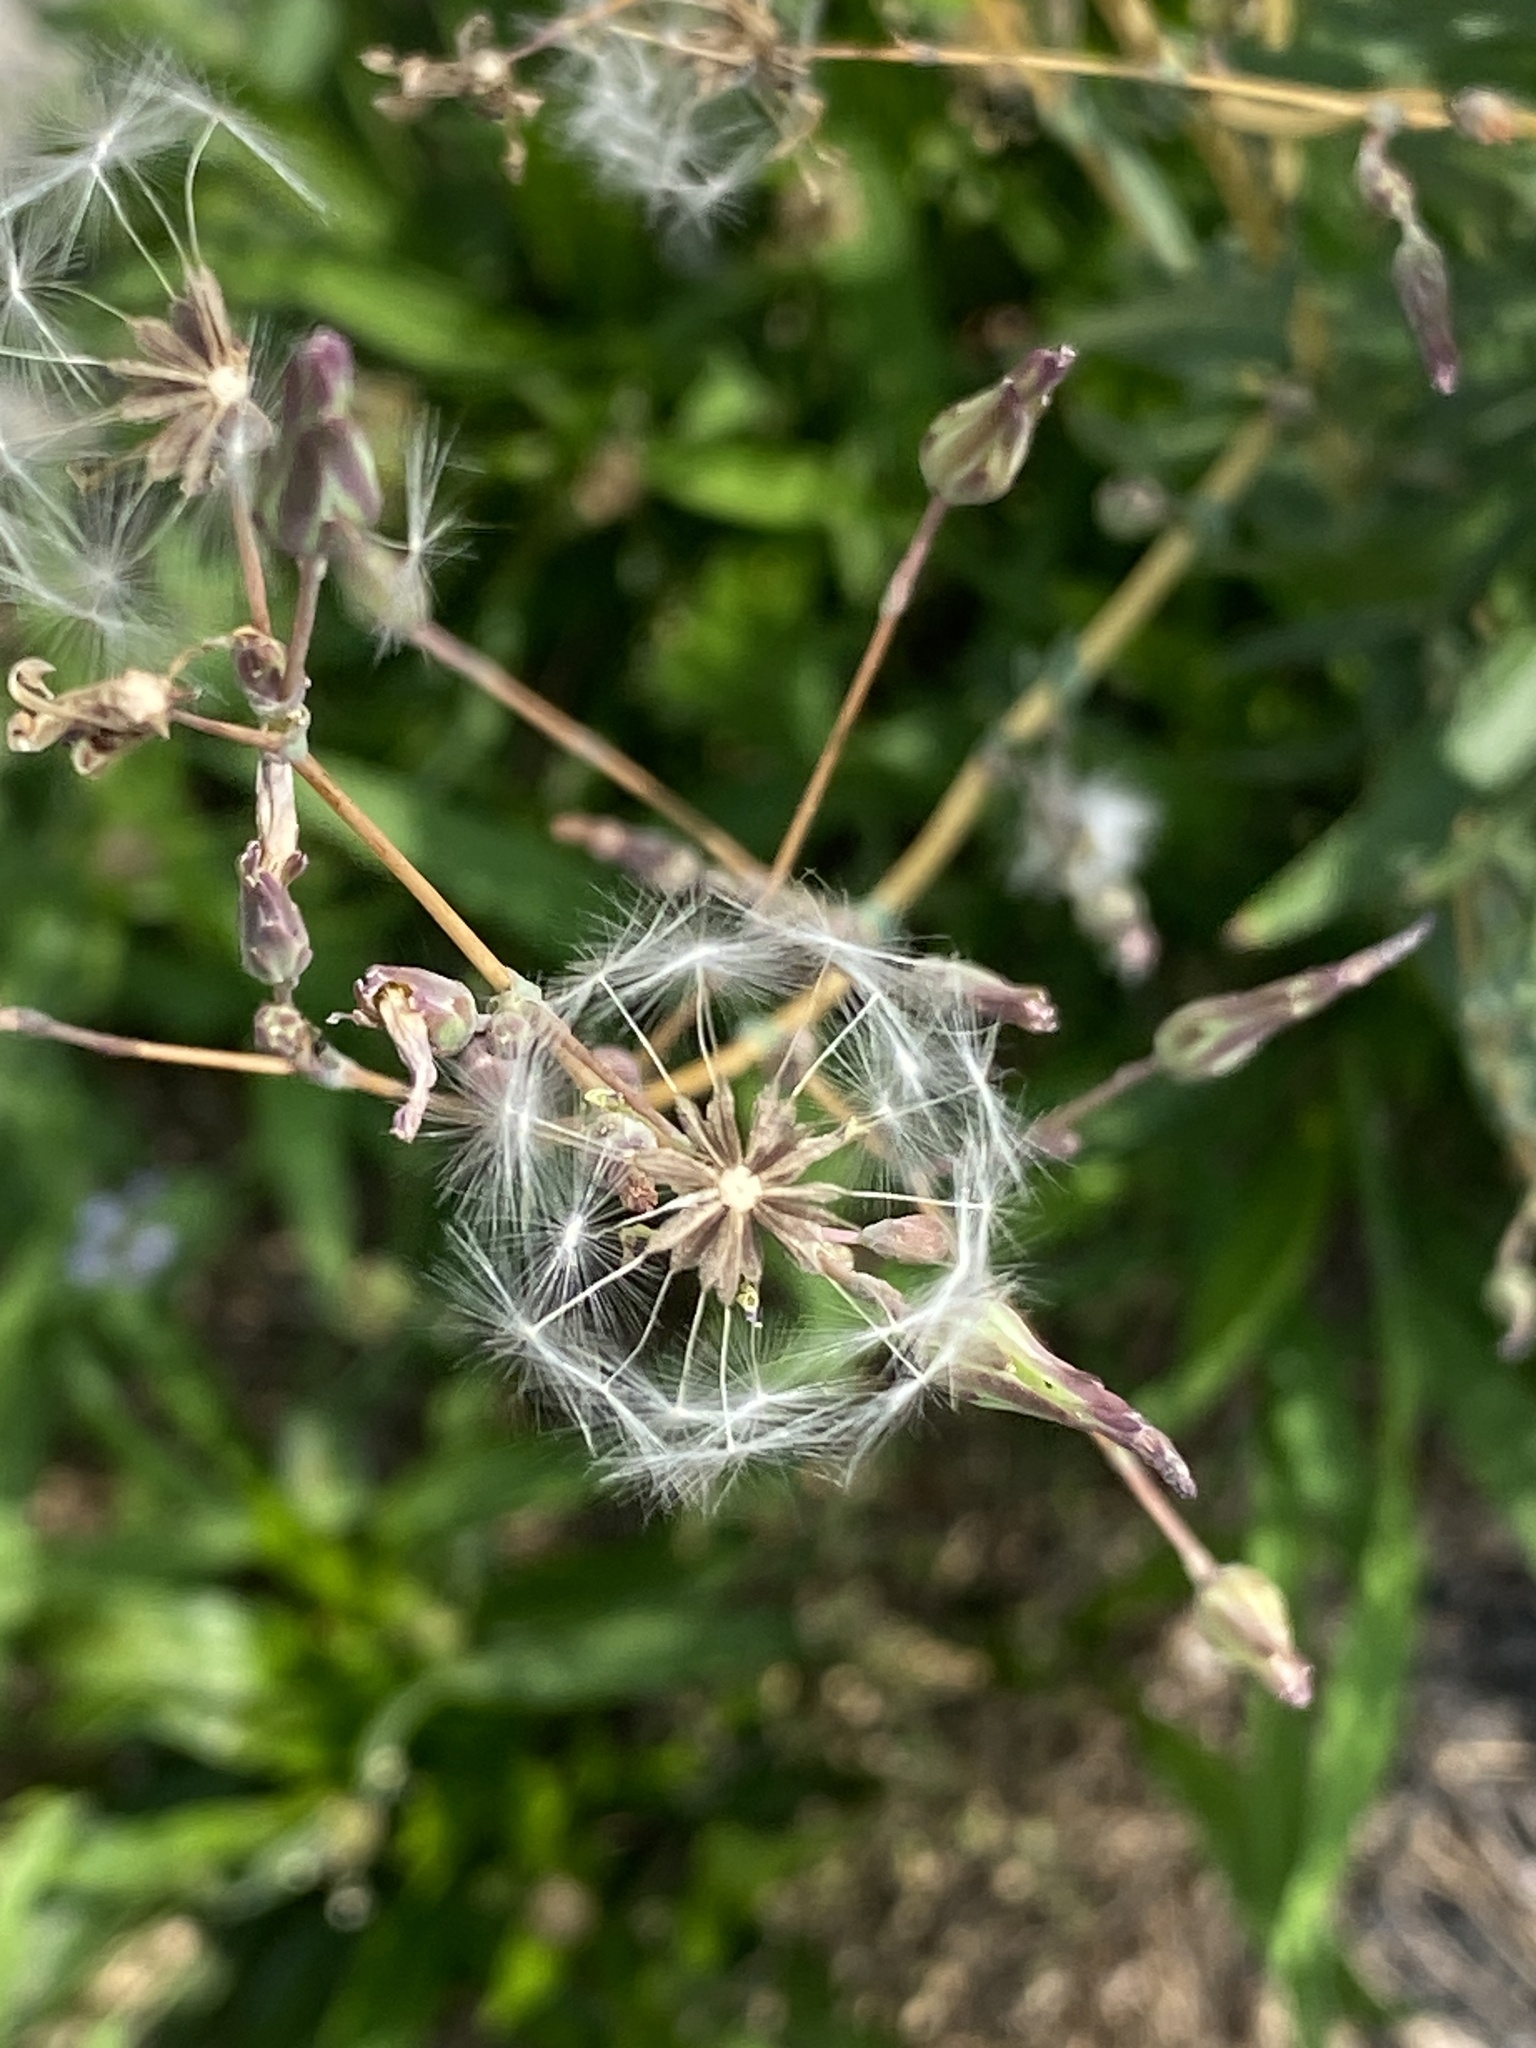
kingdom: Plantae
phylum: Tracheophyta
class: Magnoliopsida
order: Asterales
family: Asteraceae
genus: Lactuca
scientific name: Lactuca serriola
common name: Prickly lettuce
